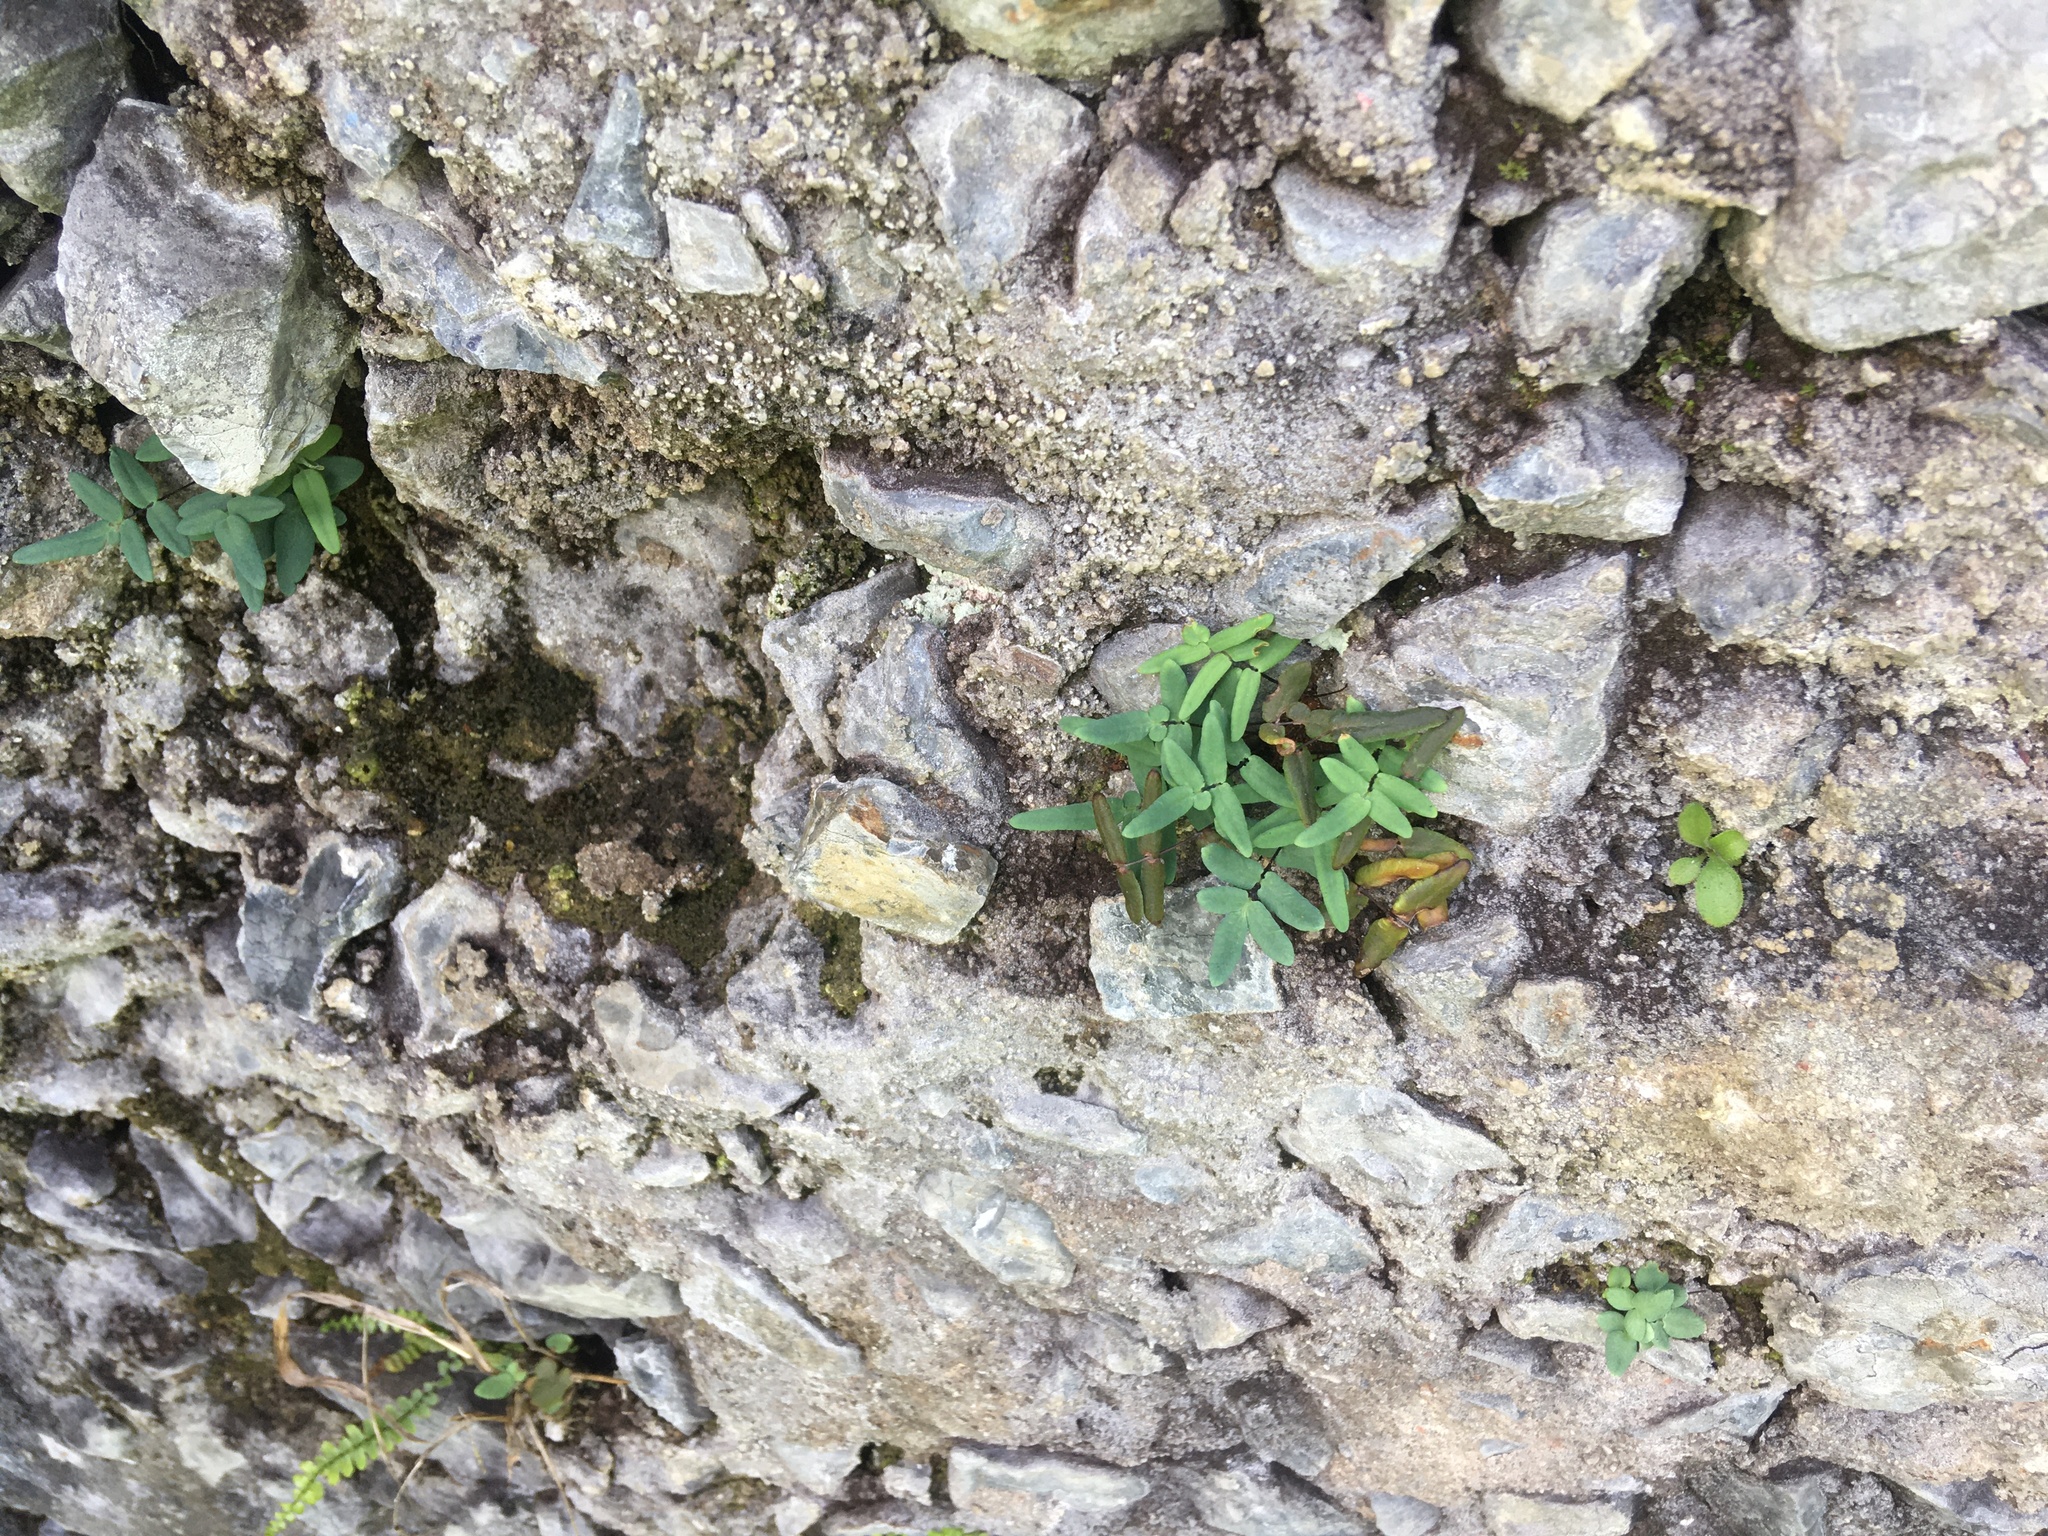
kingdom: Plantae
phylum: Tracheophyta
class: Polypodiopsida
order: Polypodiales
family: Pteridaceae
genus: Pellaea
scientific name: Pellaea glabella
